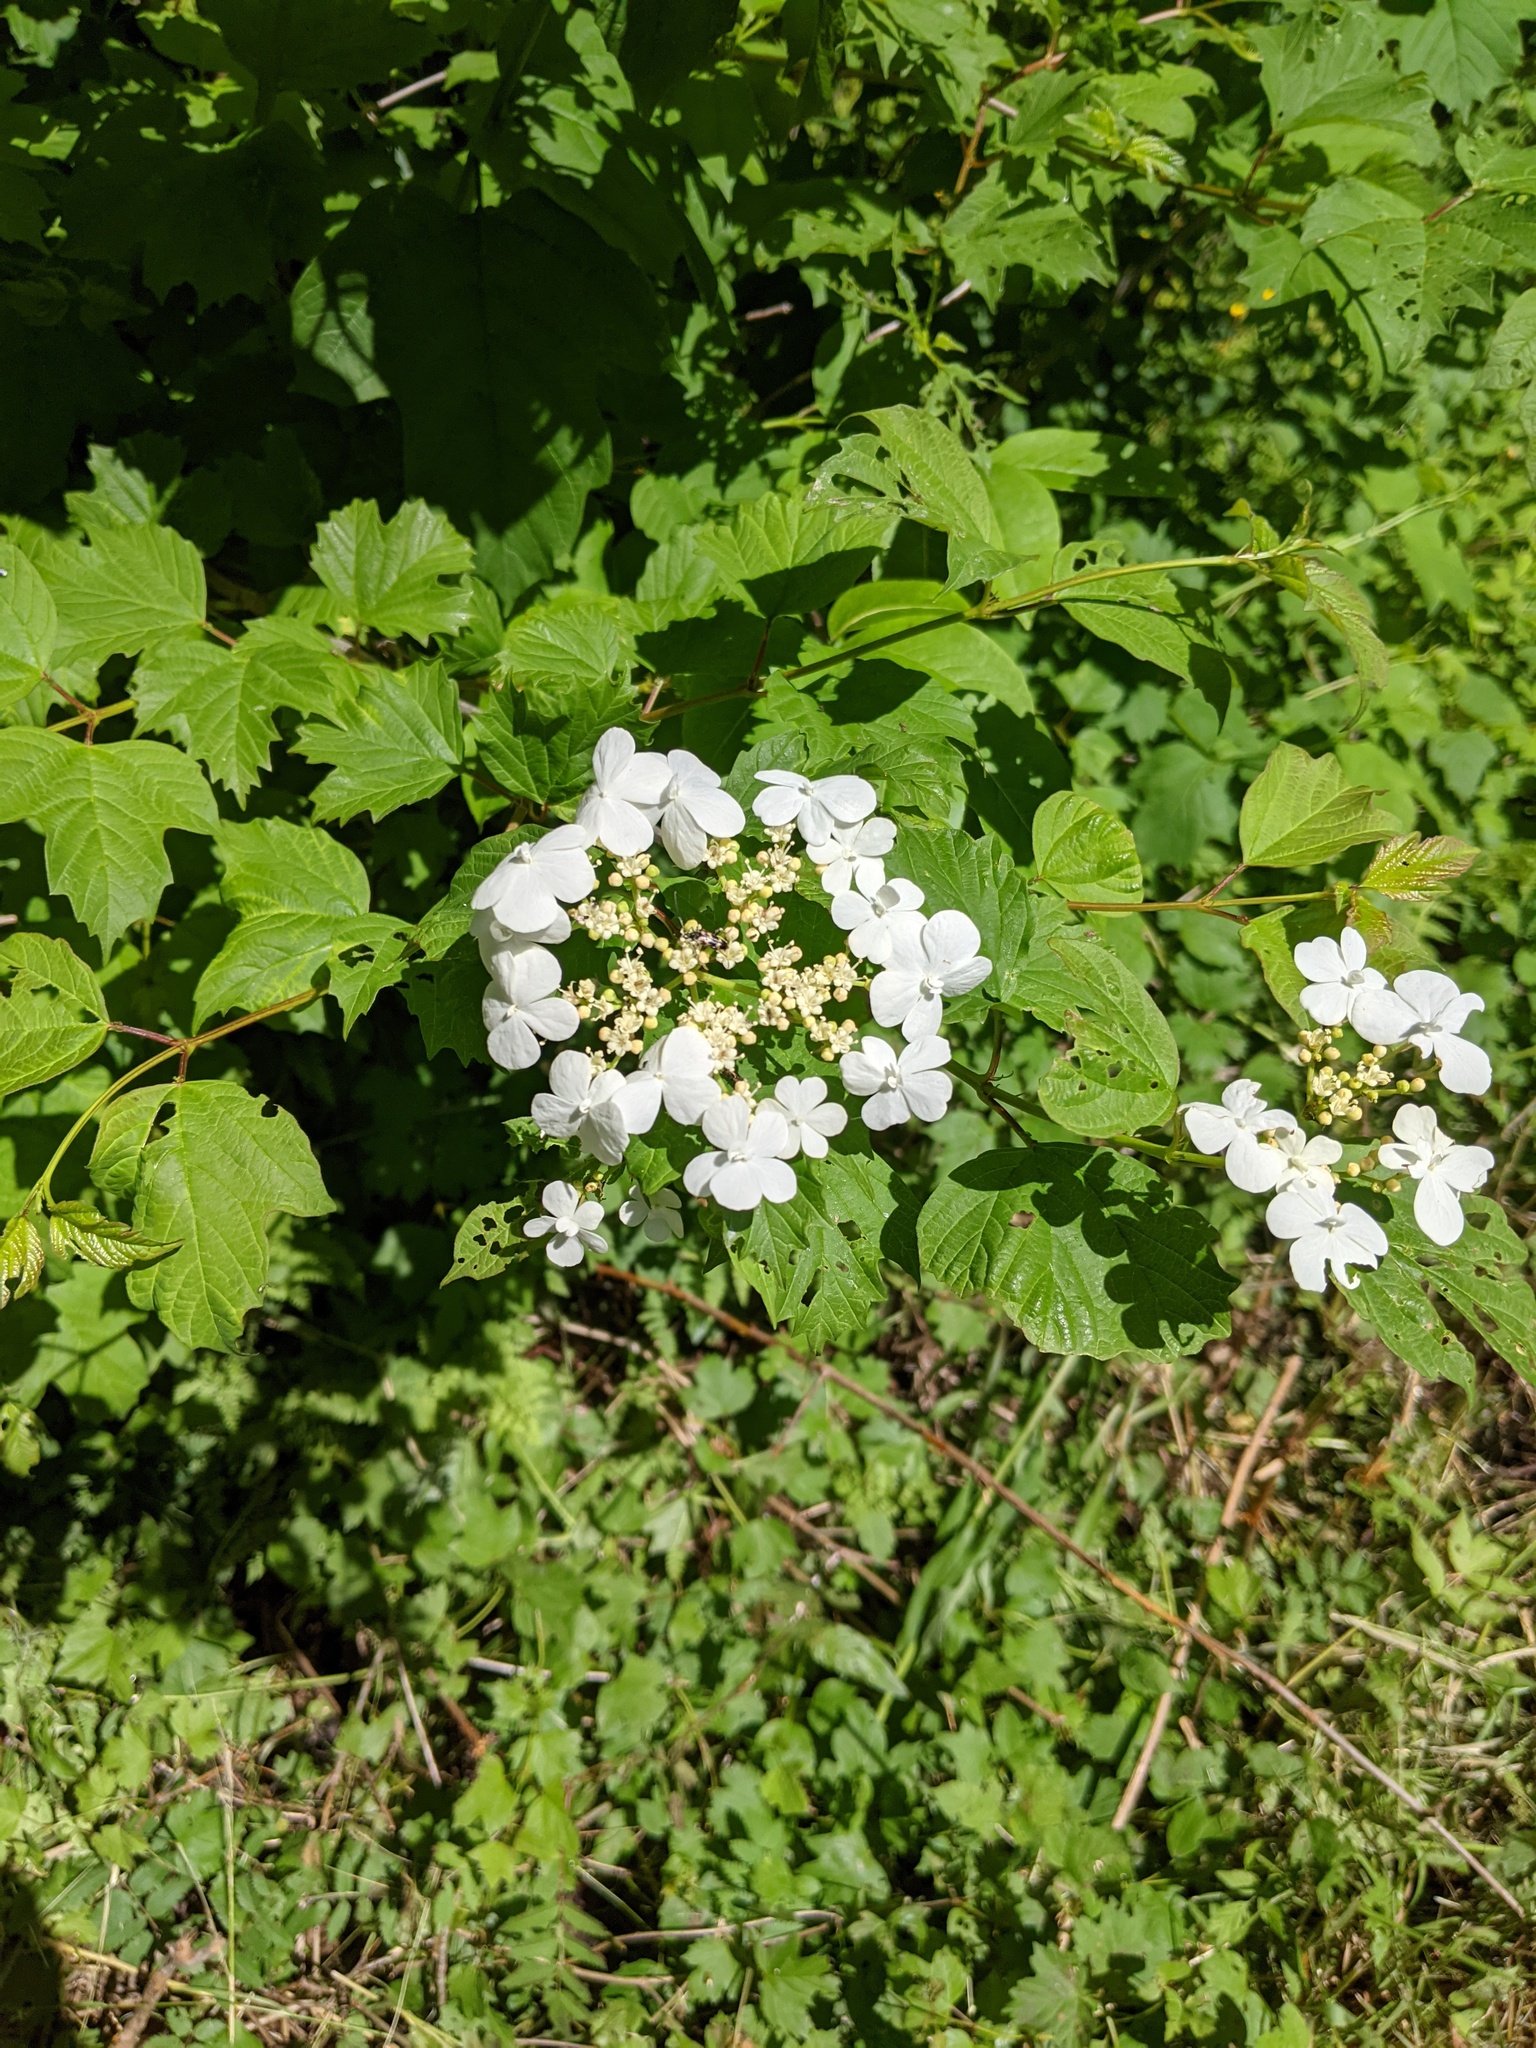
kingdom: Plantae
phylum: Tracheophyta
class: Magnoliopsida
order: Dipsacales
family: Viburnaceae
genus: Viburnum
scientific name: Viburnum opulus
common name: Guelder-rose
